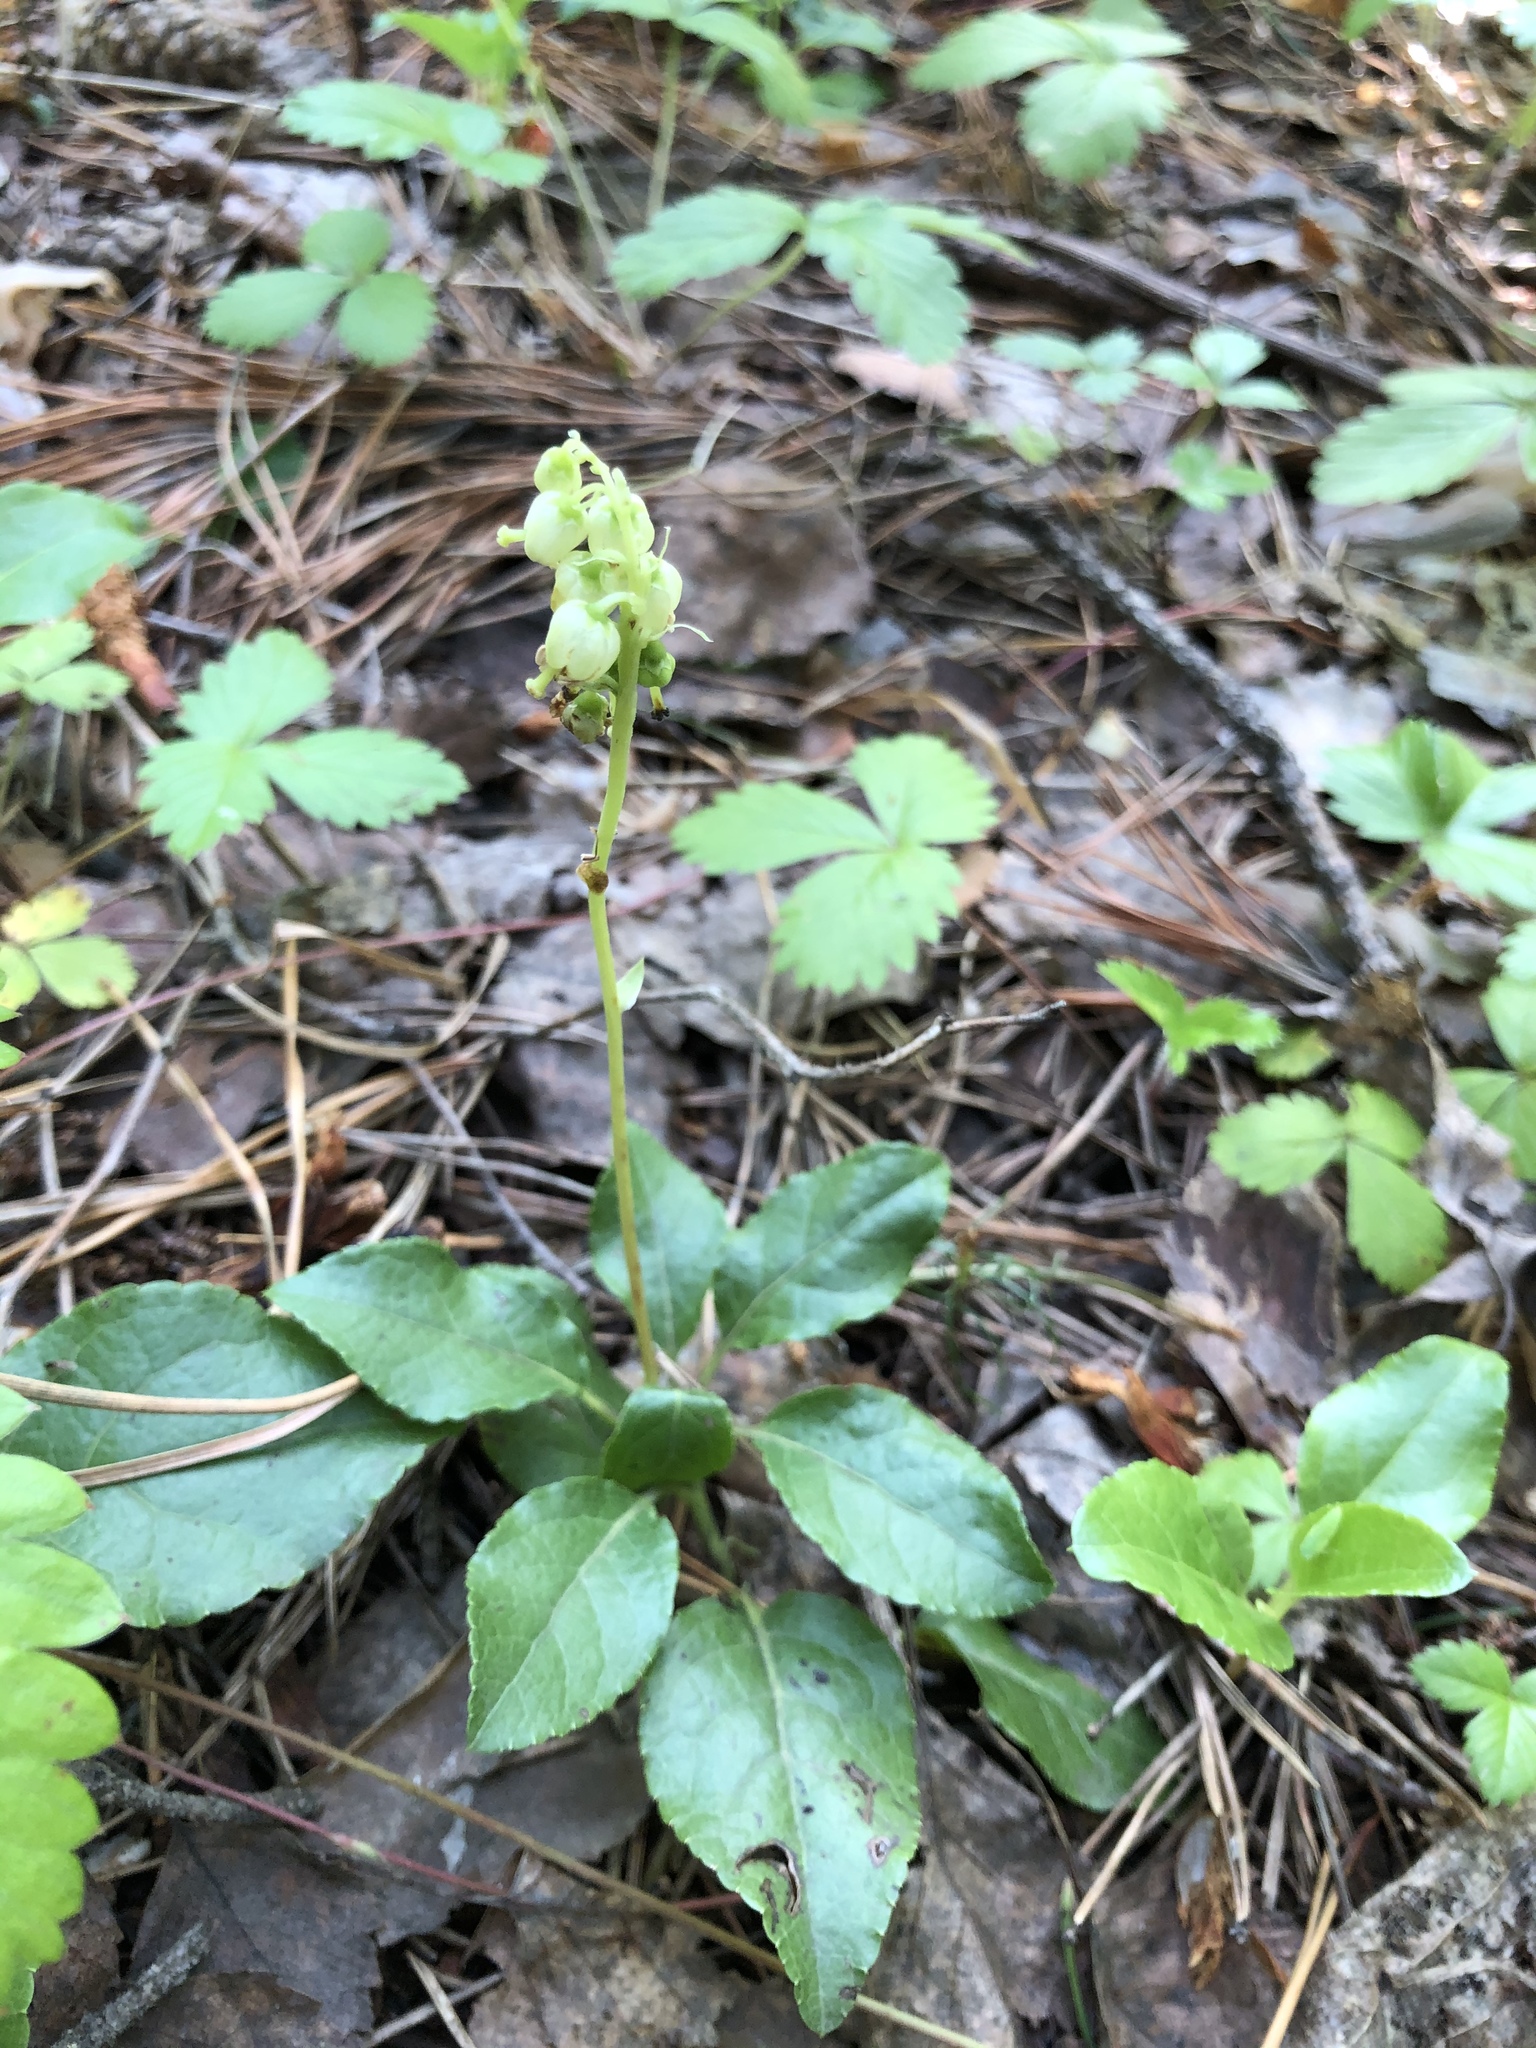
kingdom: Plantae
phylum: Tracheophyta
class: Magnoliopsida
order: Ericales
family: Ericaceae
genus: Orthilia
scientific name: Orthilia secunda
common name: One-sided orthilia
